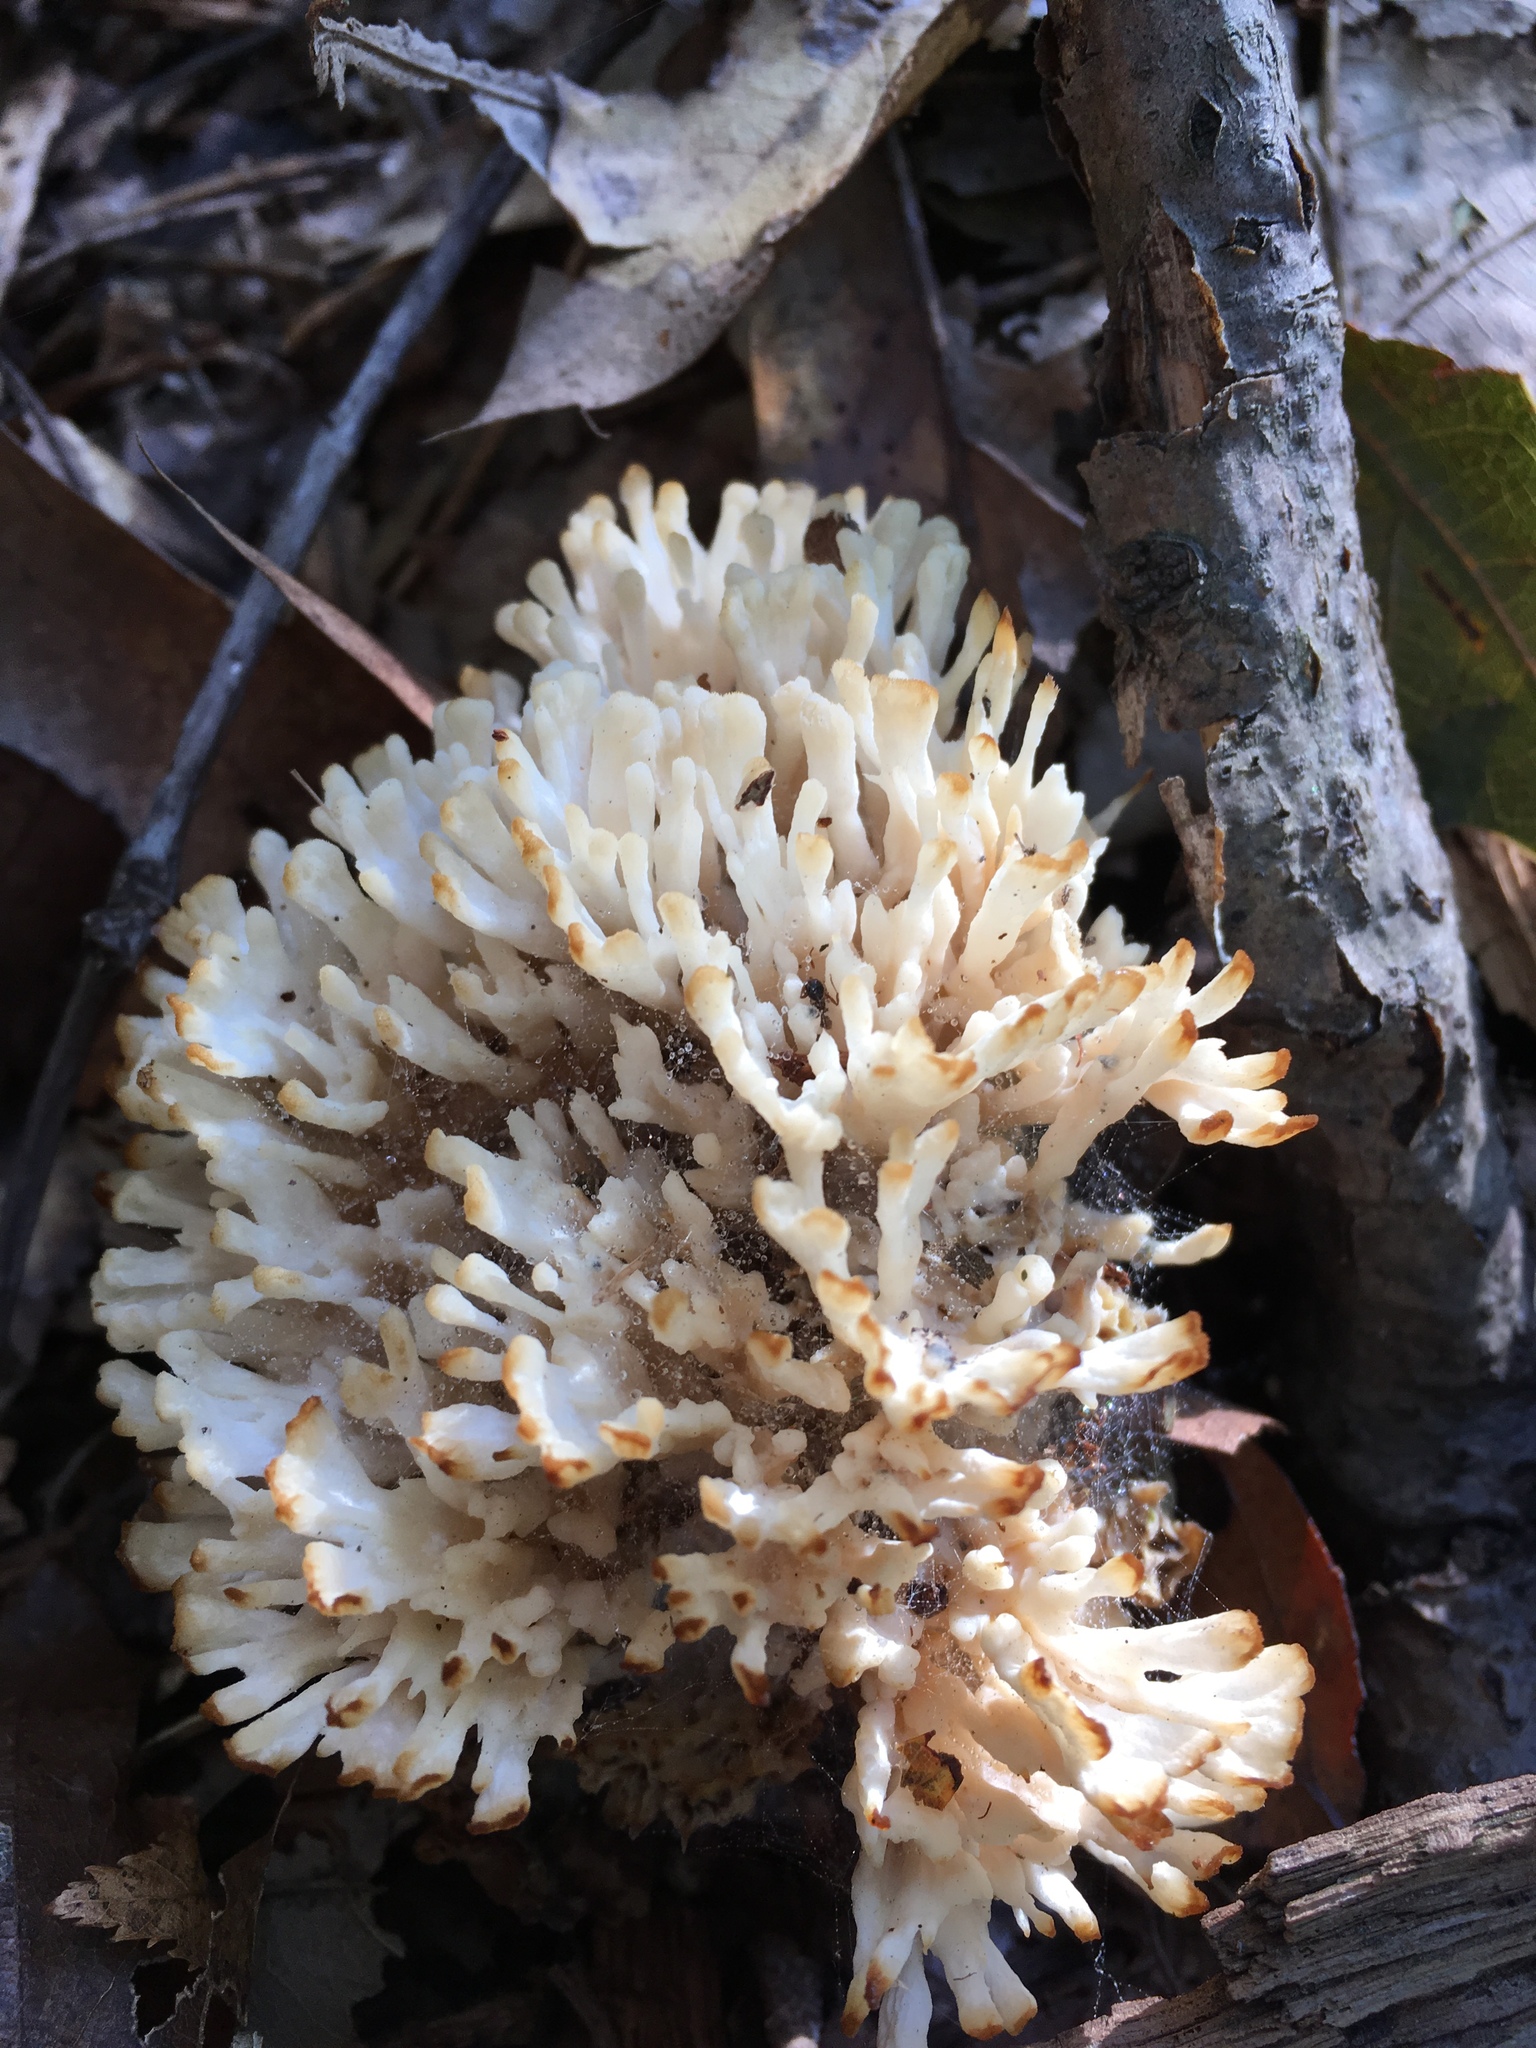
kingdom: Fungi
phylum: Basidiomycota
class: Agaricomycetes
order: Sebacinales
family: Sebacinaceae
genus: Sebacina
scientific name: Sebacina schweinitzii
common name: Jellied false coral fungus
